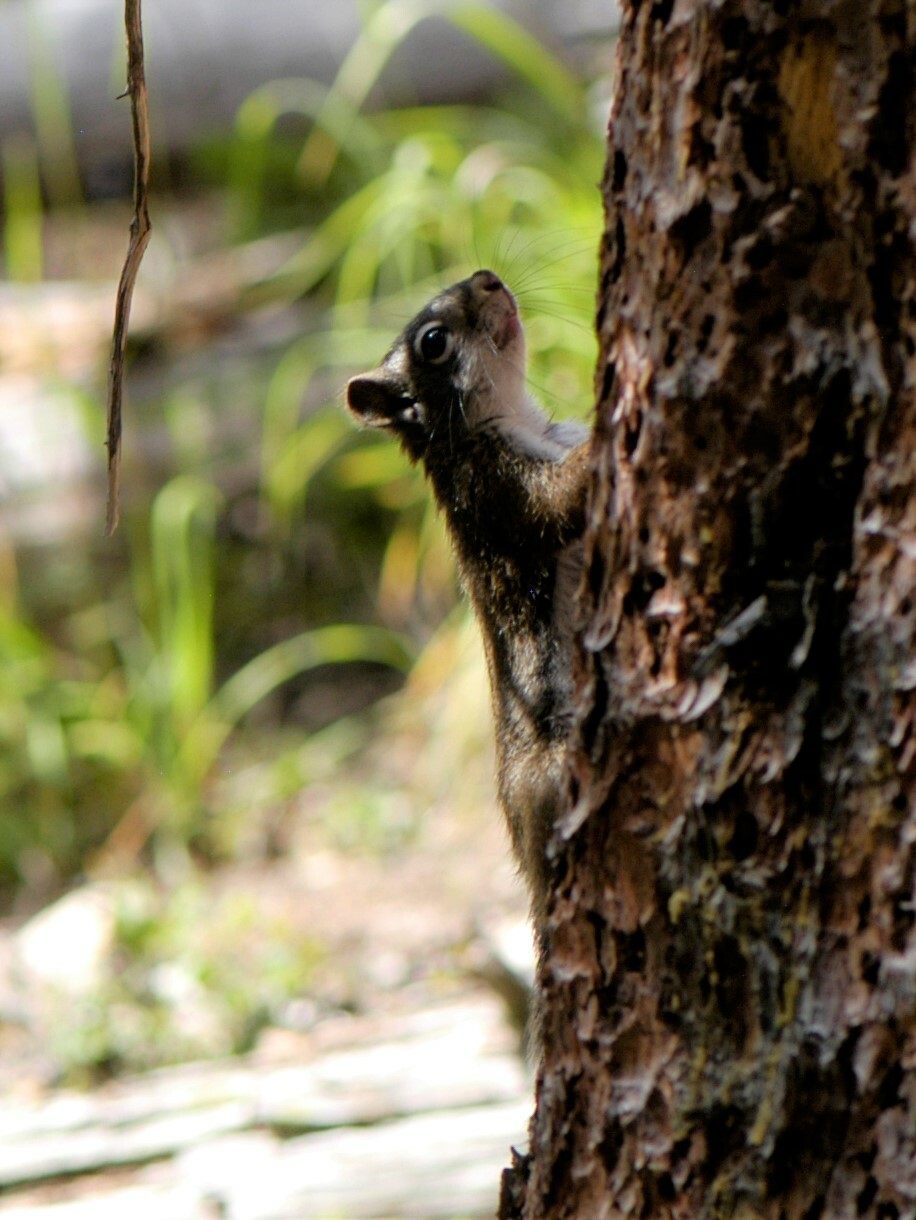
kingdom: Animalia
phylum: Chordata
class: Mammalia
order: Rodentia
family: Sciuridae
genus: Tamiasciurus
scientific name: Tamiasciurus hudsonicus
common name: Red squirrel
